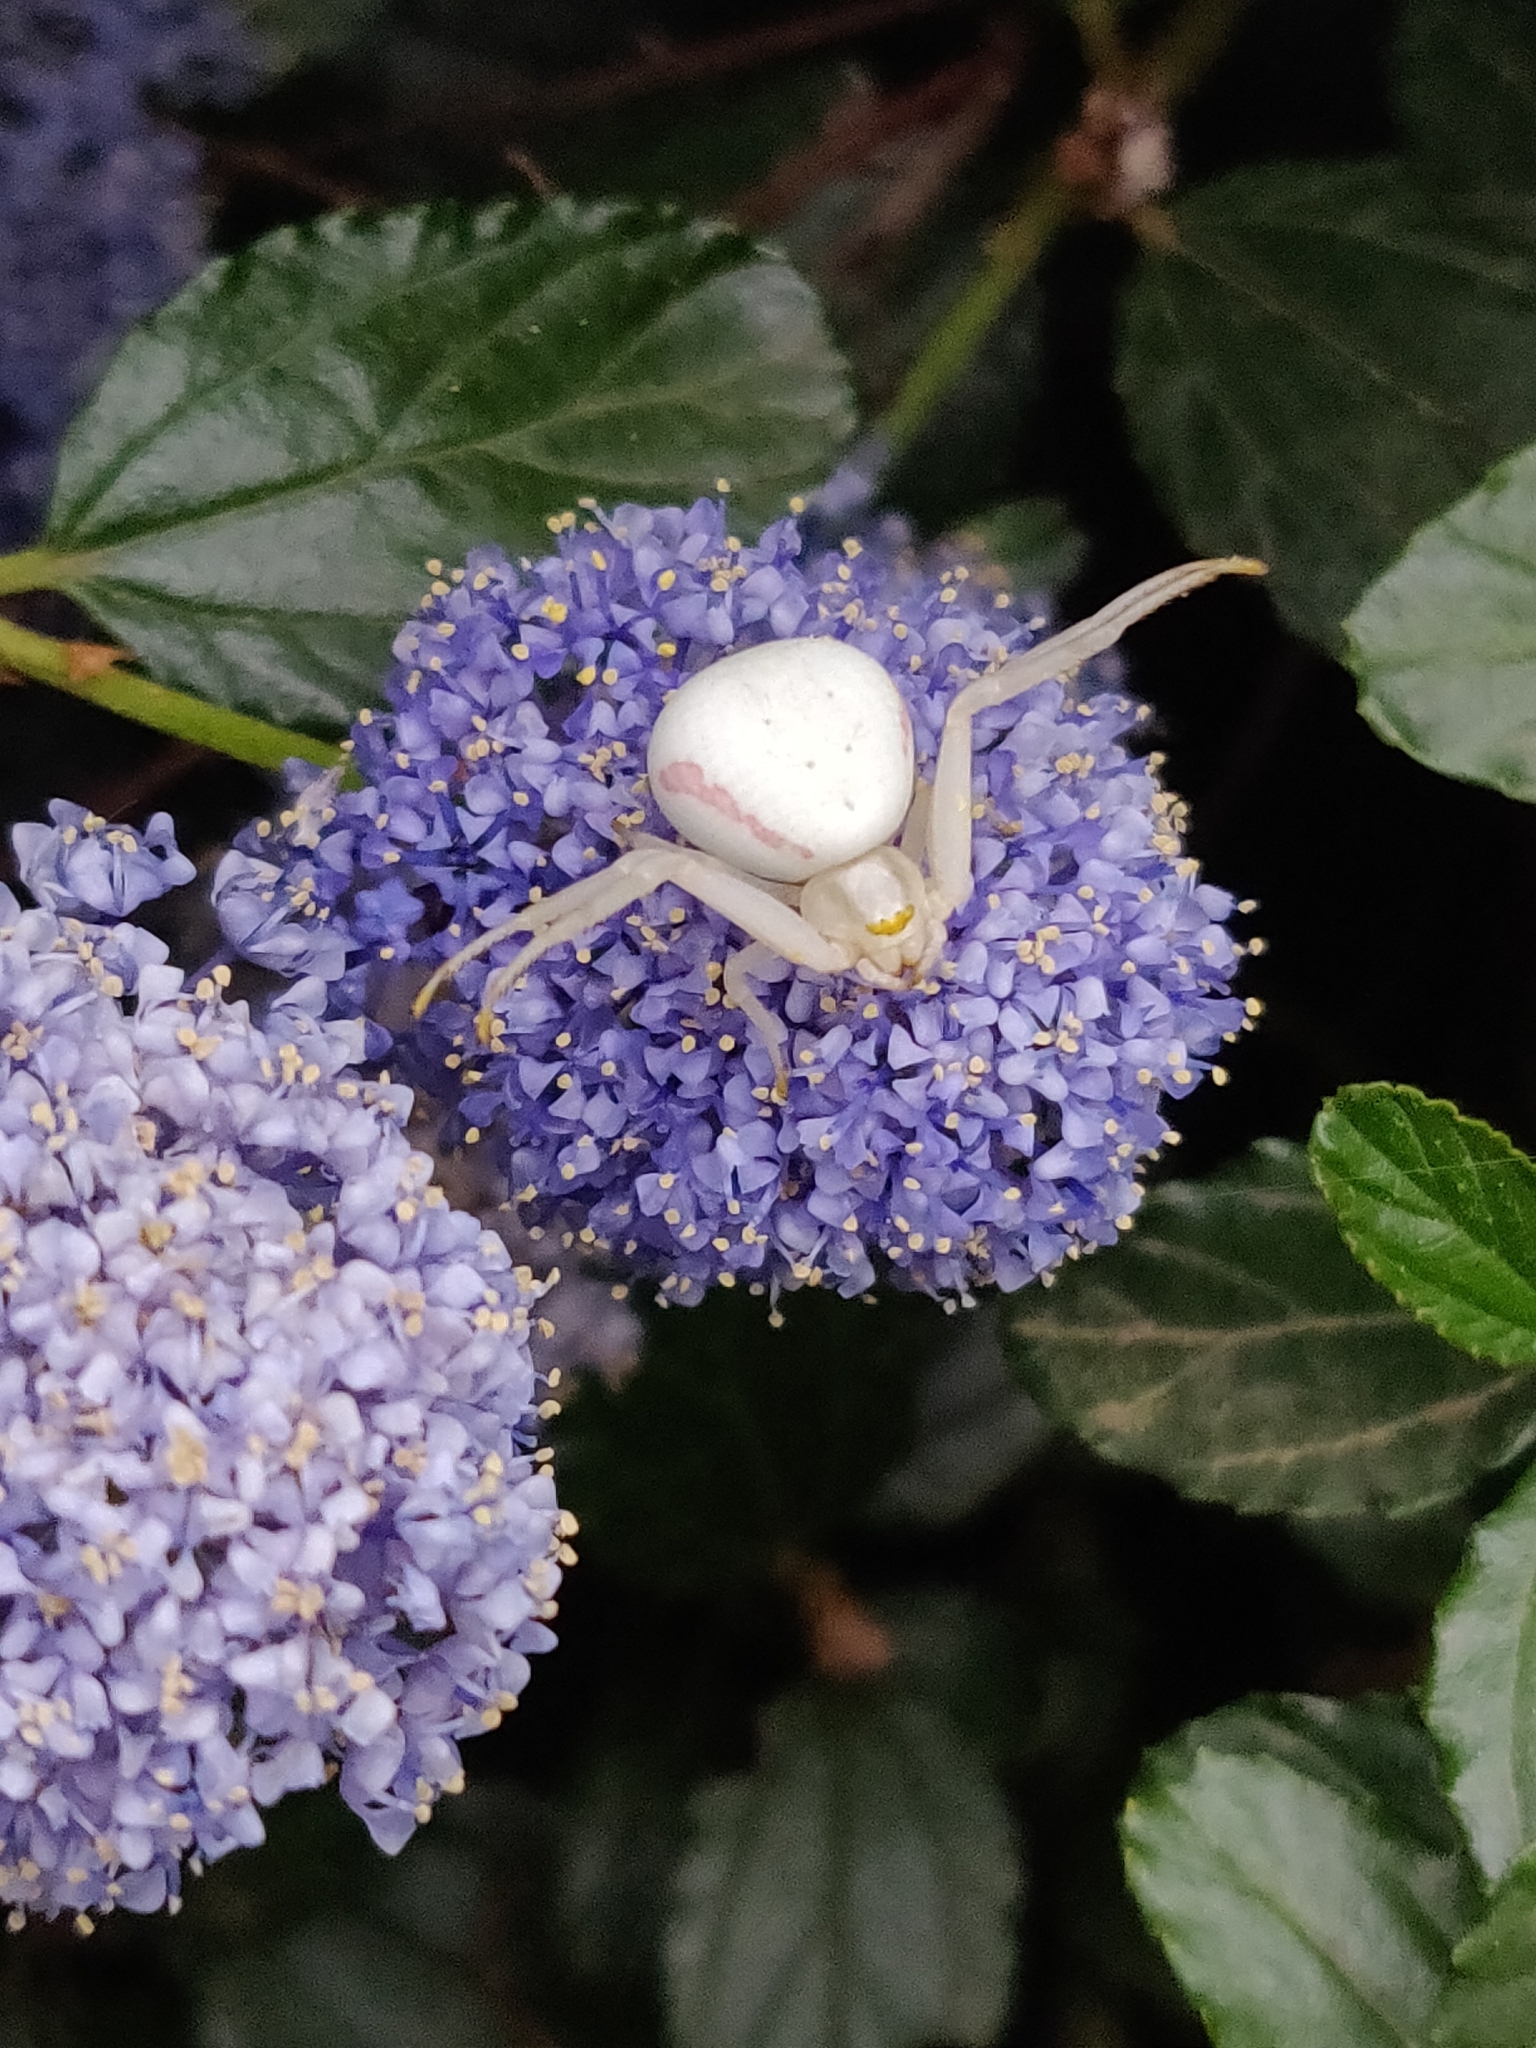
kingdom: Animalia
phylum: Arthropoda
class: Arachnida
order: Araneae
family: Thomisidae
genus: Misumena
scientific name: Misumena vatia
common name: Goldenrod crab spider
